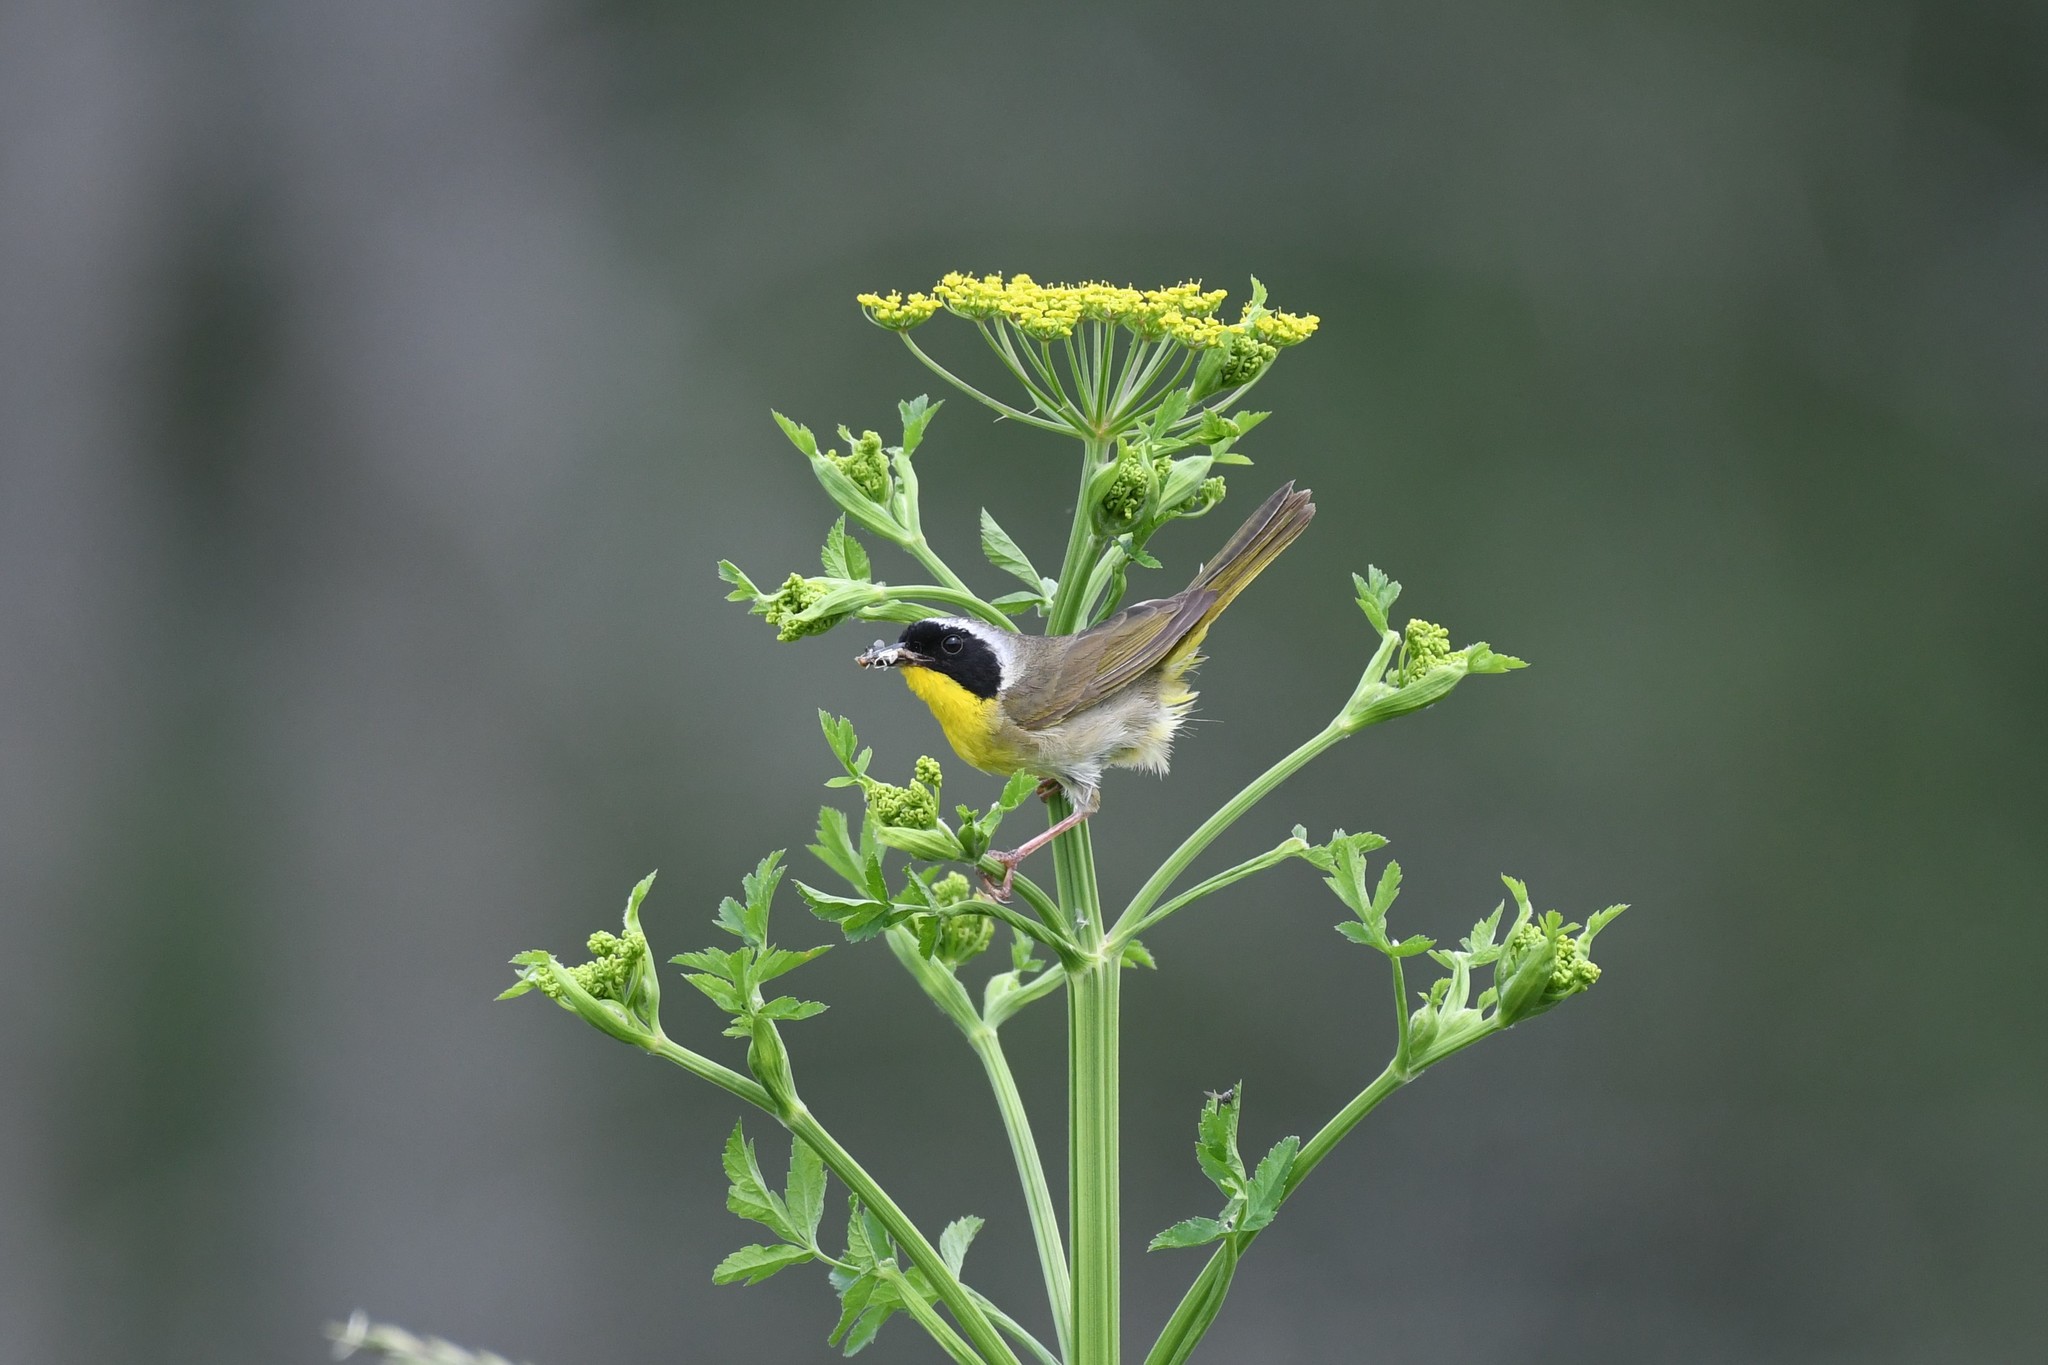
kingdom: Animalia
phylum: Chordata
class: Aves
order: Passeriformes
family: Parulidae
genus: Geothlypis
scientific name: Geothlypis trichas
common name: Common yellowthroat
